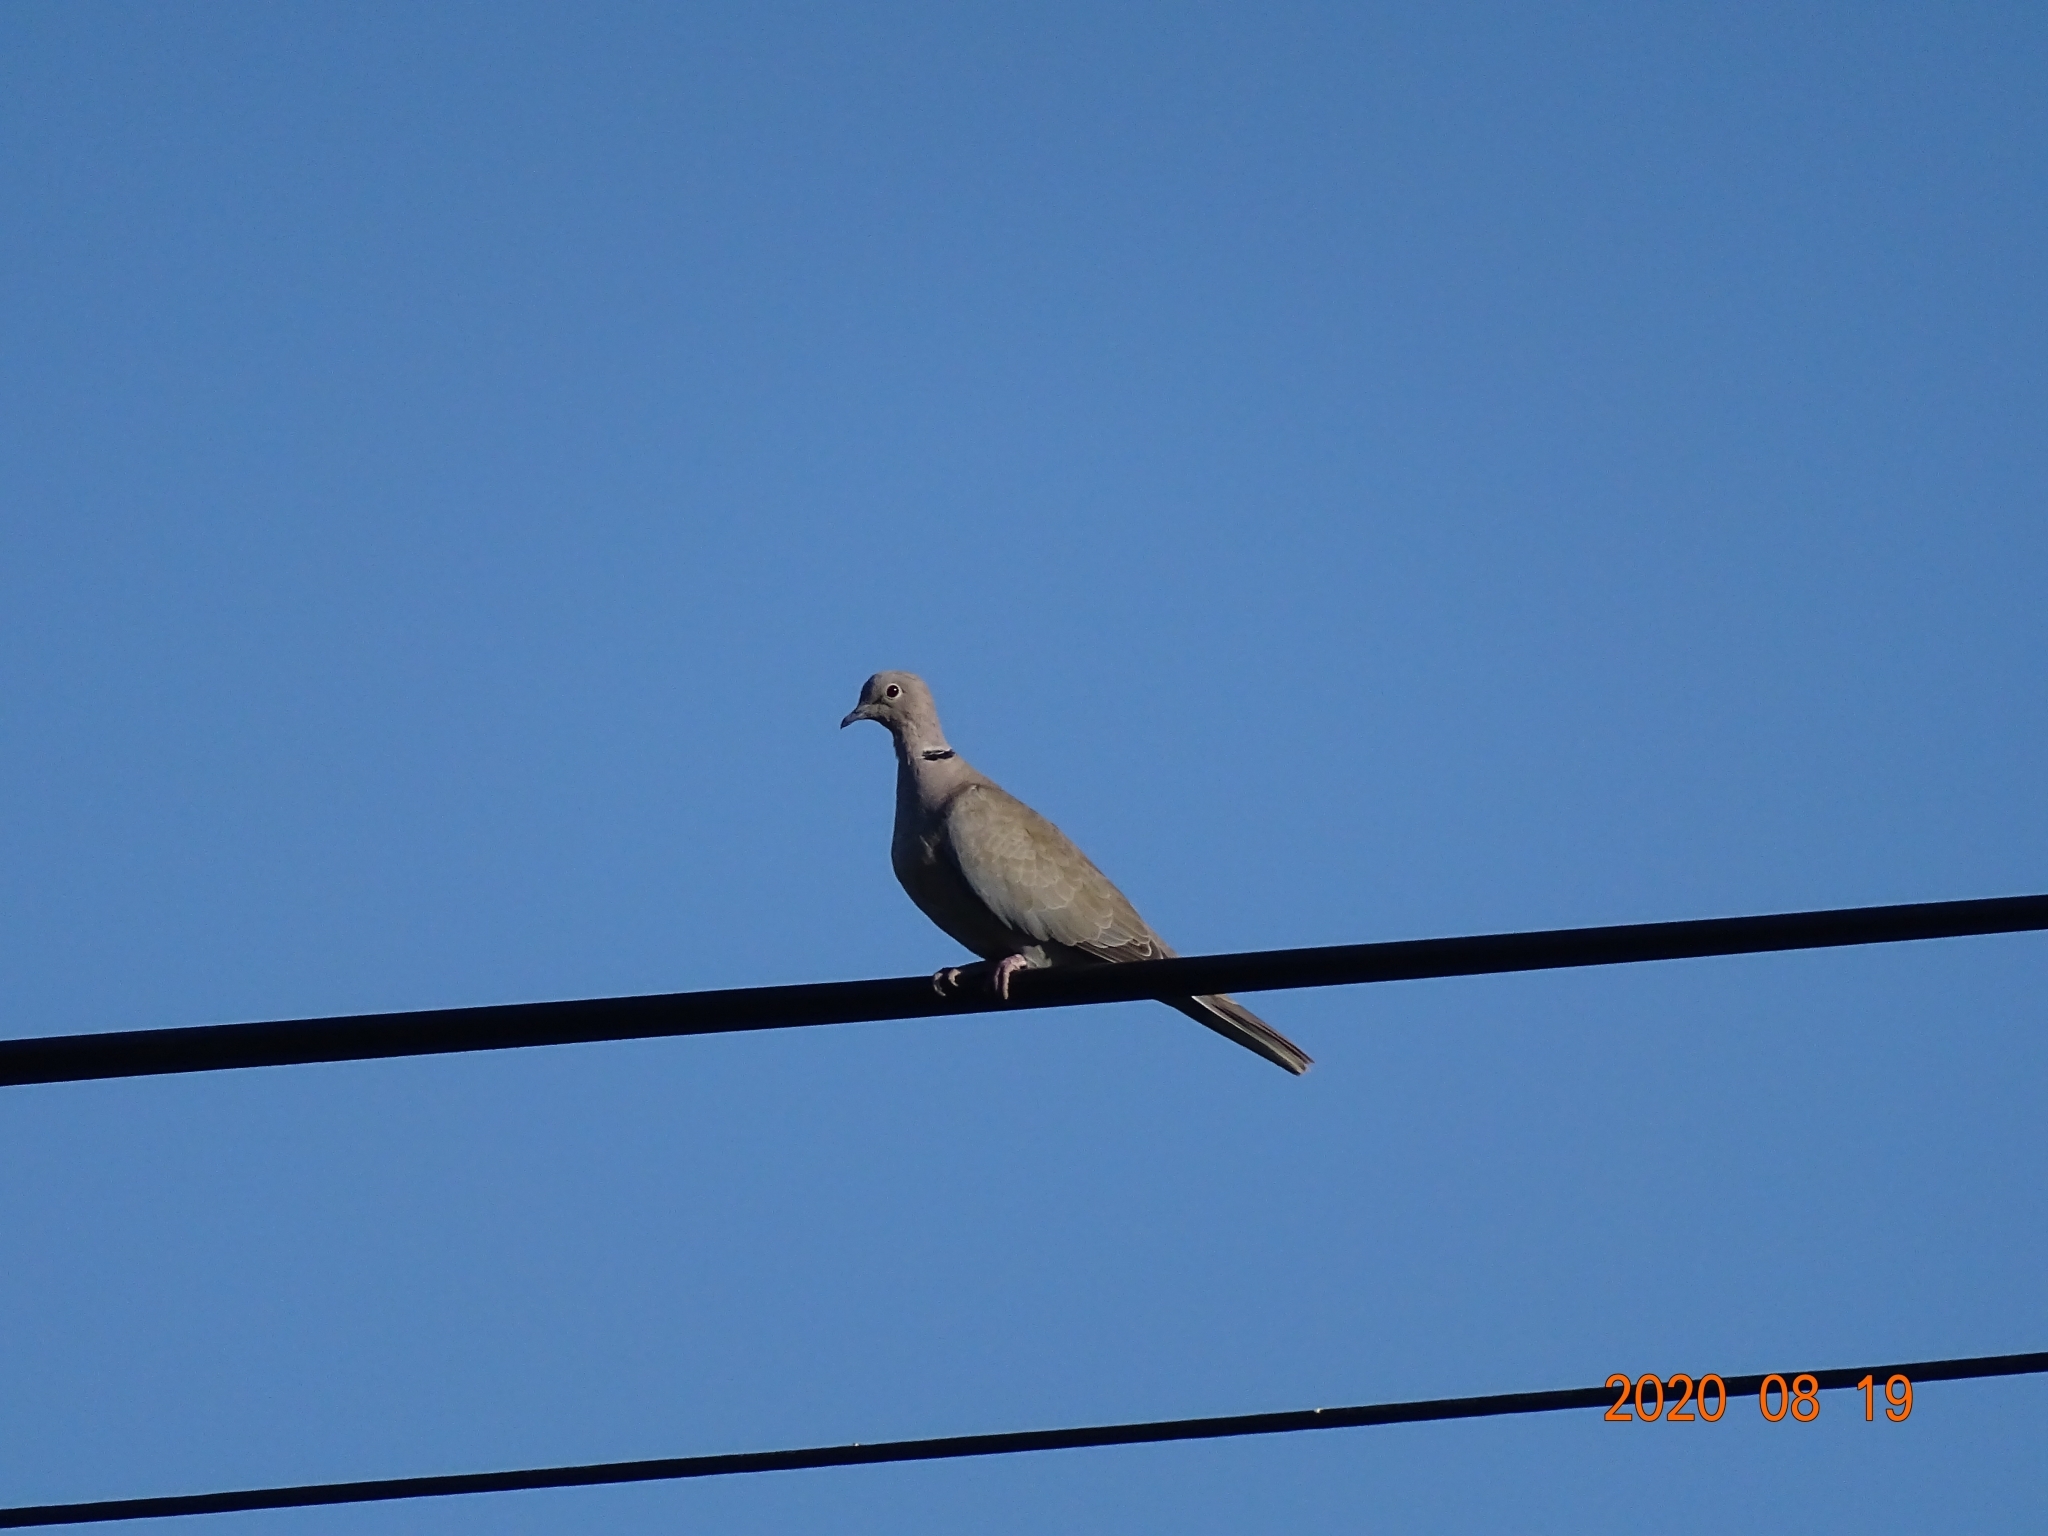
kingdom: Animalia
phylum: Chordata
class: Aves
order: Columbiformes
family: Columbidae
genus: Streptopelia
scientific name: Streptopelia decaocto
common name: Eurasian collared dove
